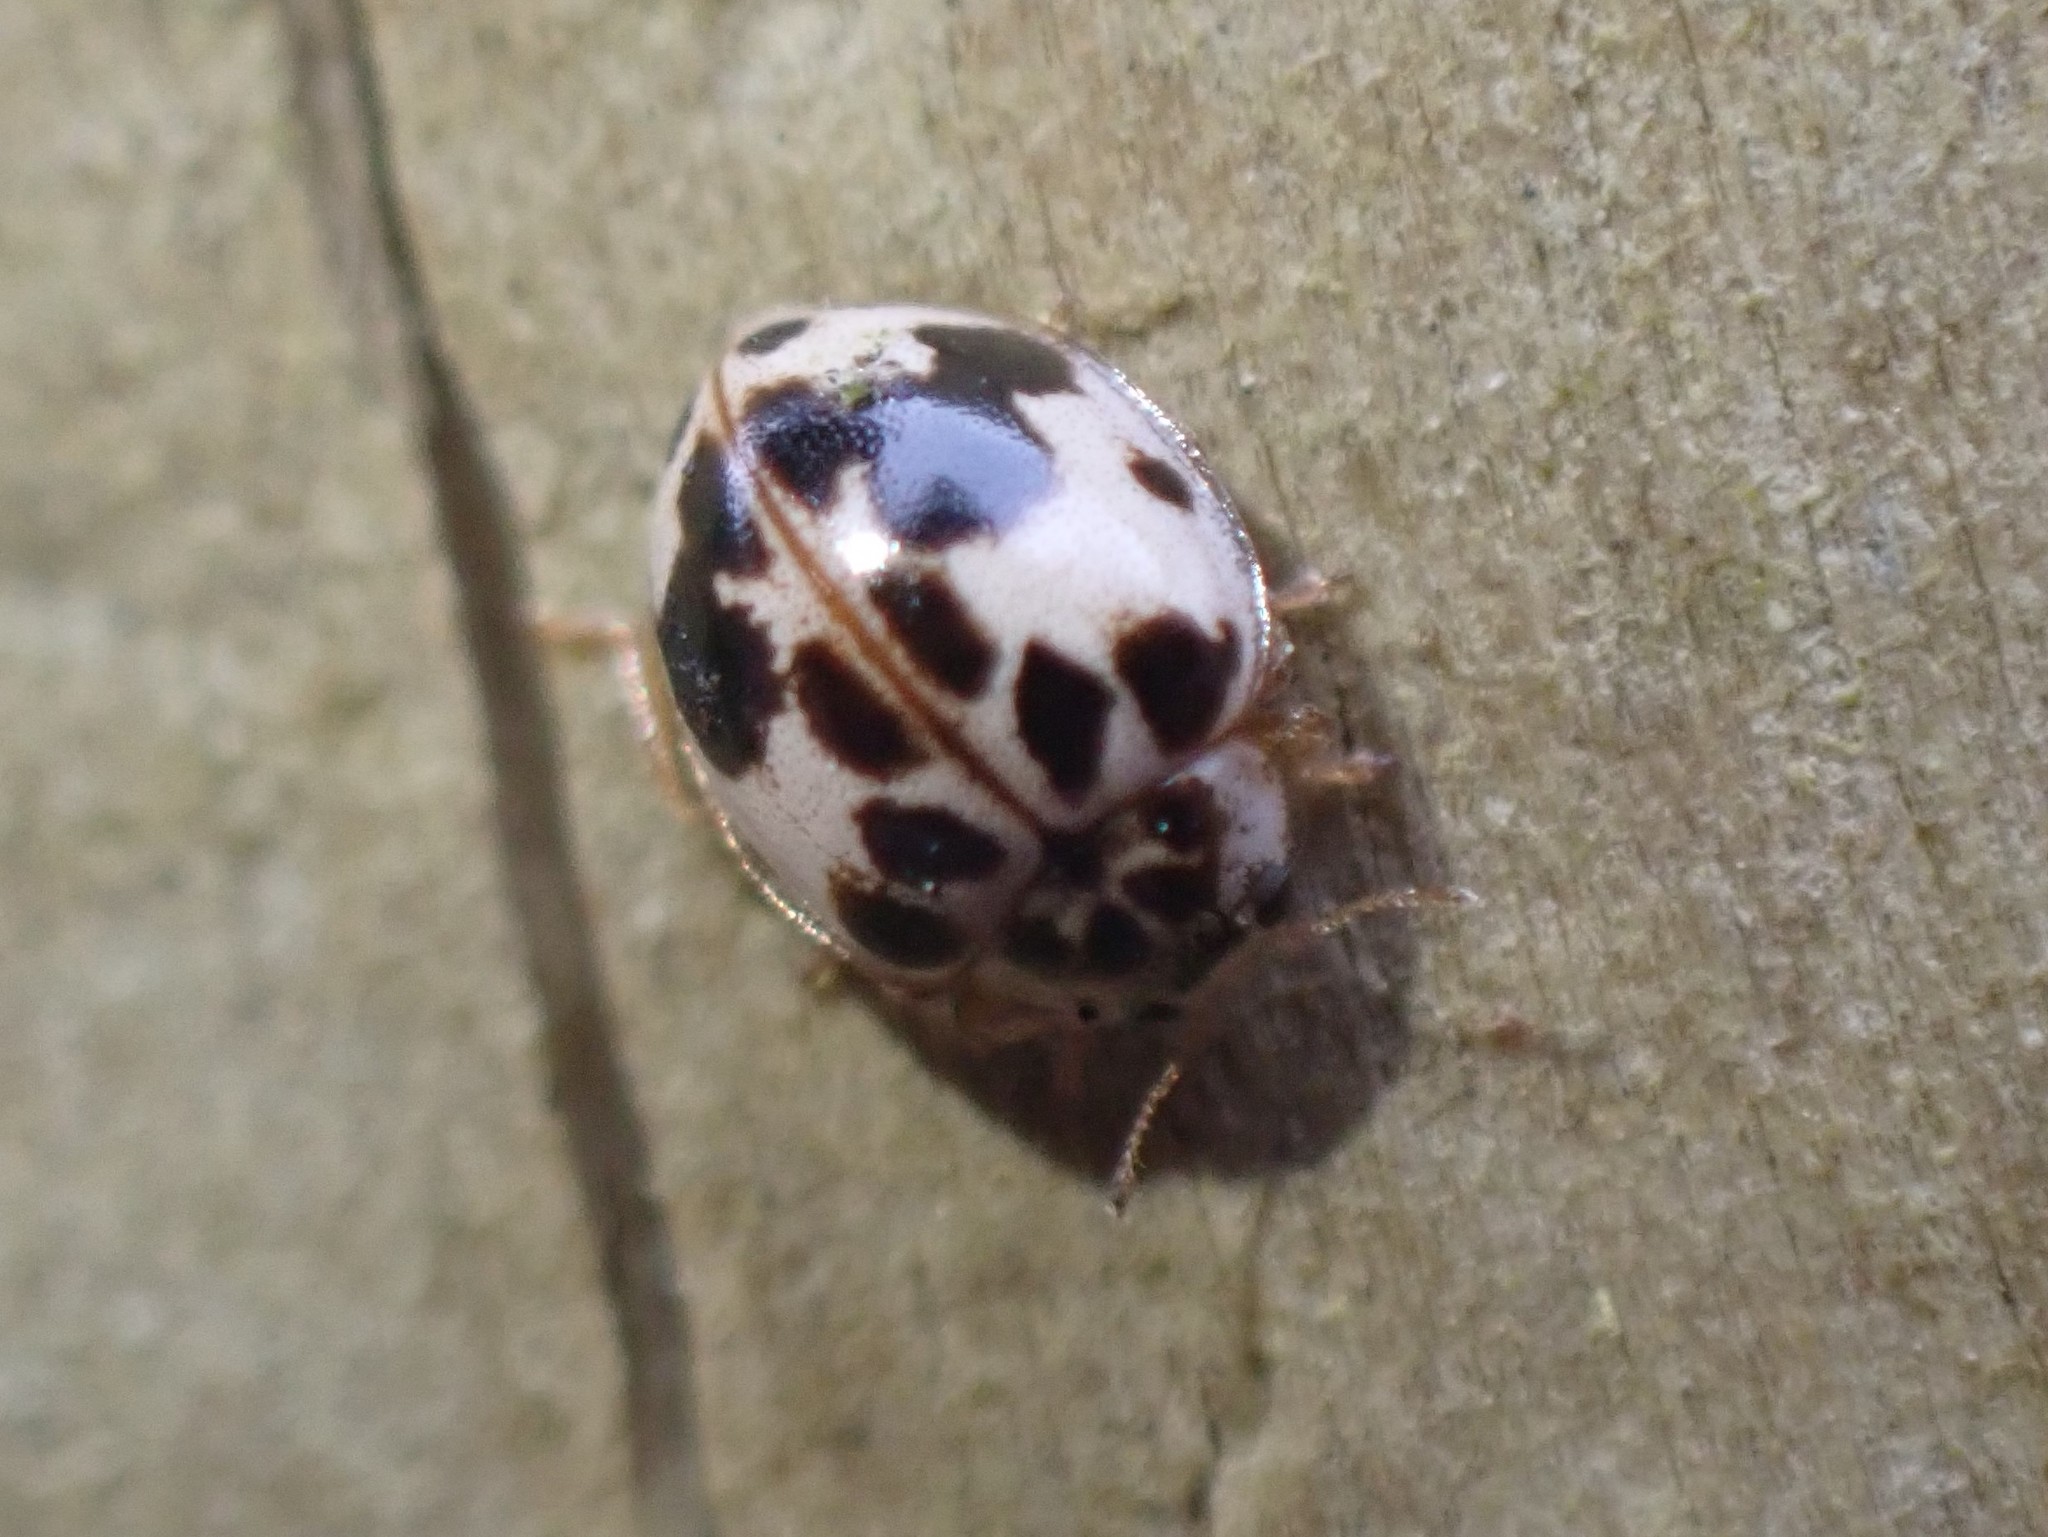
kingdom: Animalia
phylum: Arthropoda
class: Insecta
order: Coleoptera
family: Coccinellidae
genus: Psyllobora
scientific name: Psyllobora borealis
